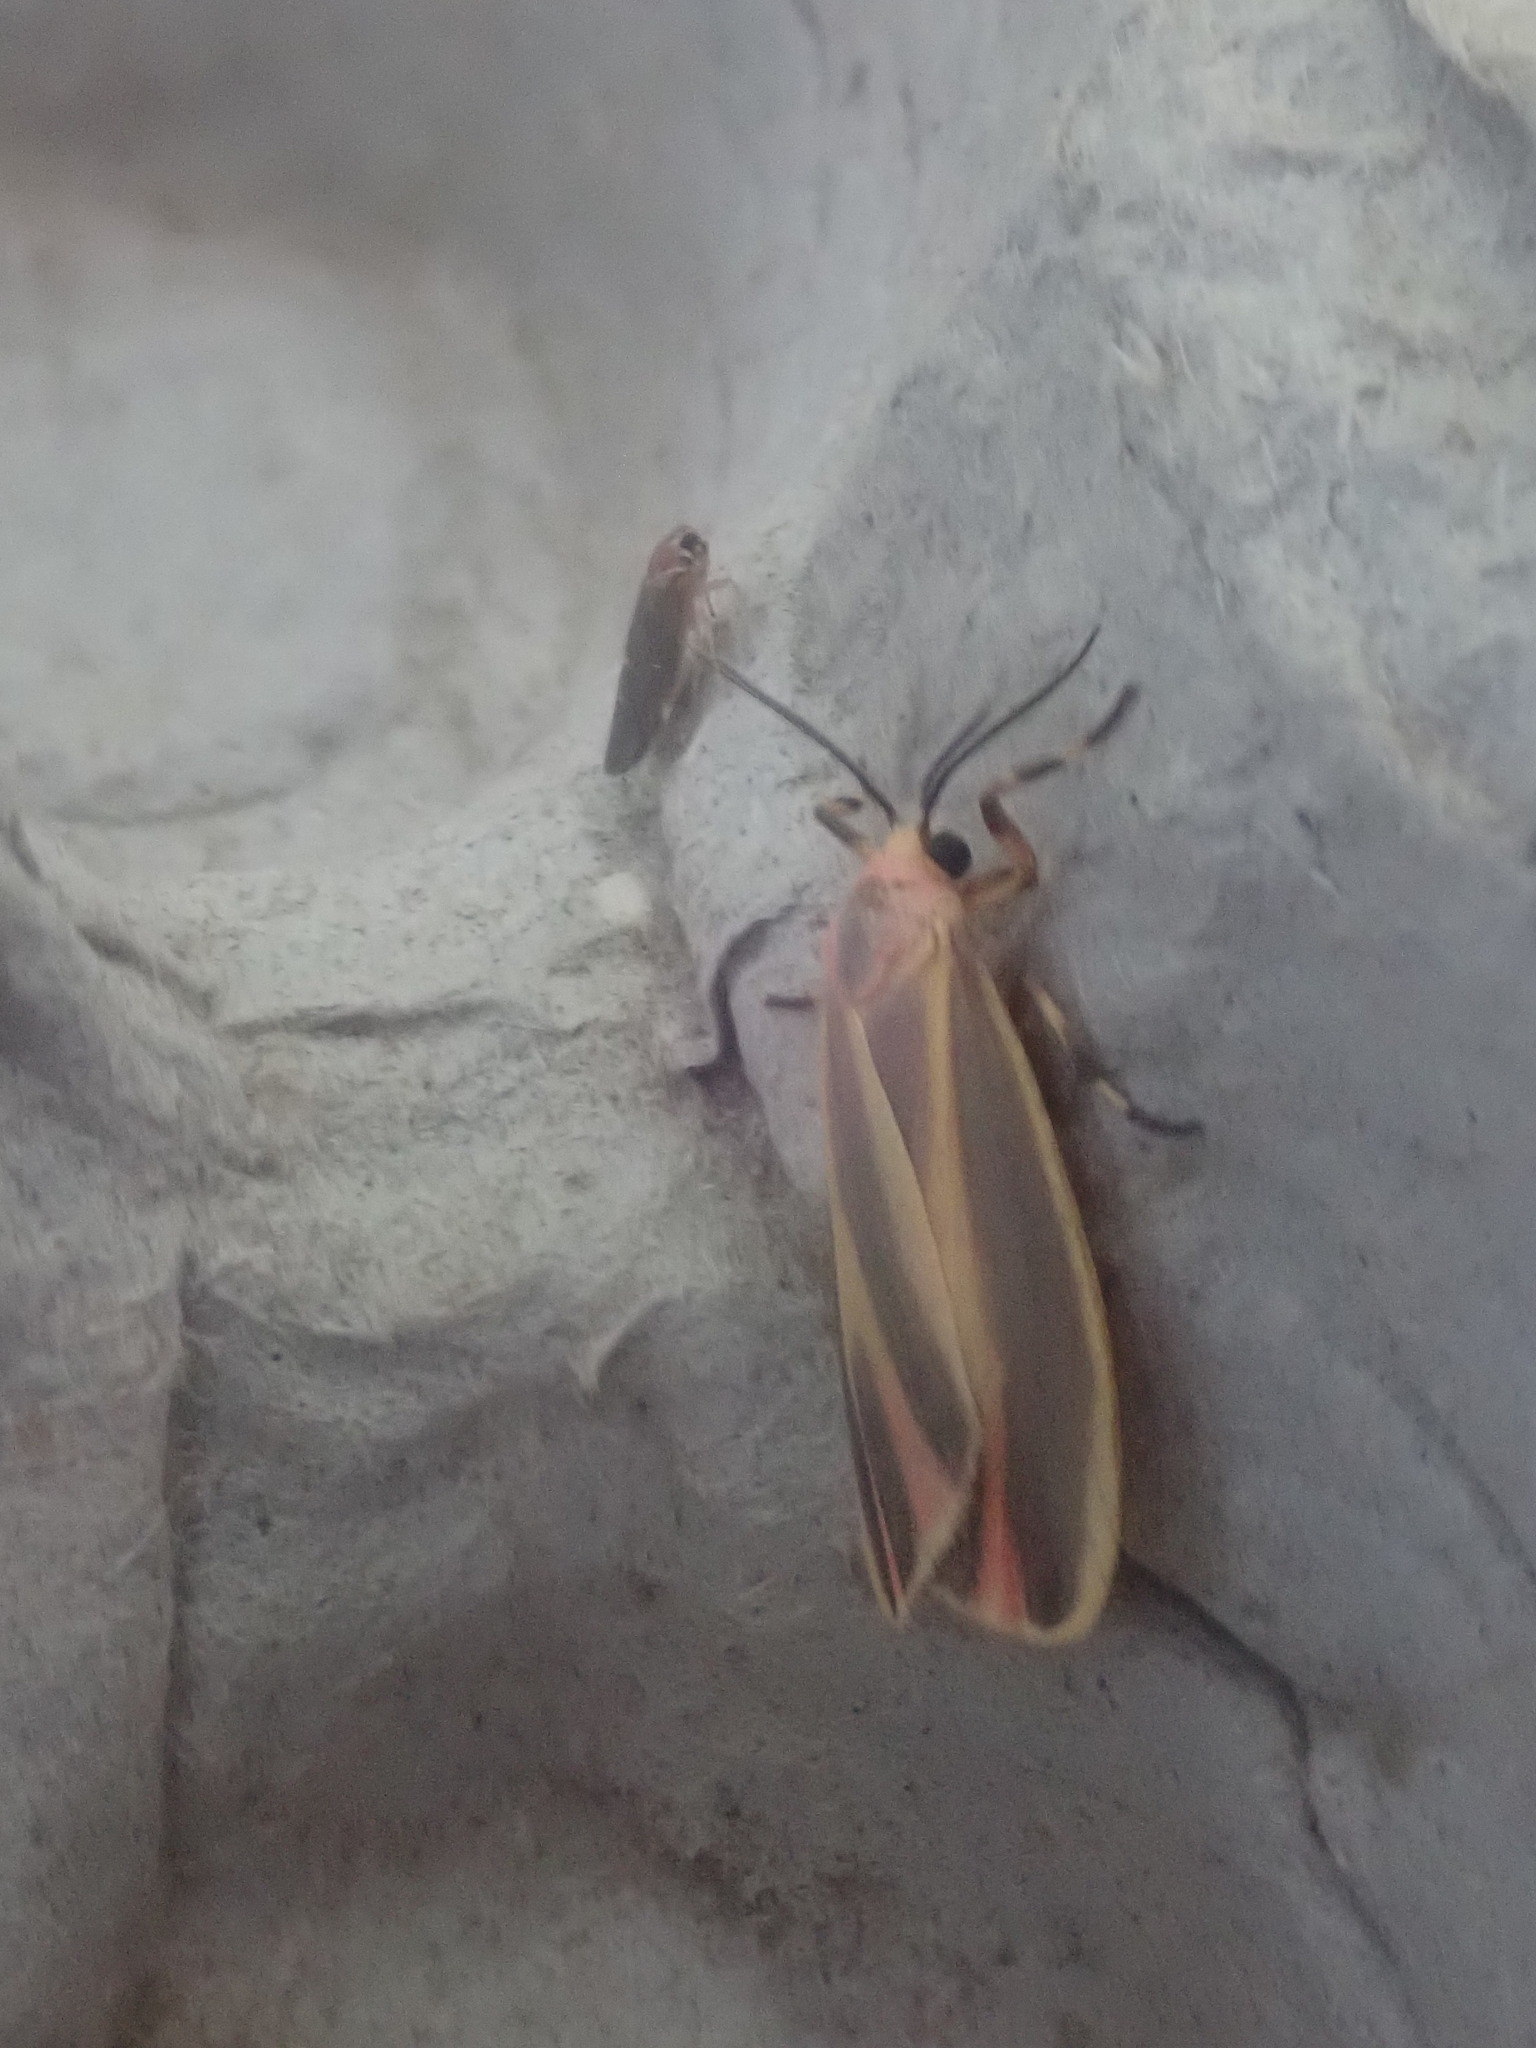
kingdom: Animalia
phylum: Arthropoda
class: Insecta
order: Lepidoptera
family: Erebidae
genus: Hypoprepia
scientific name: Hypoprepia fucosa
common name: Painted lichen moth
